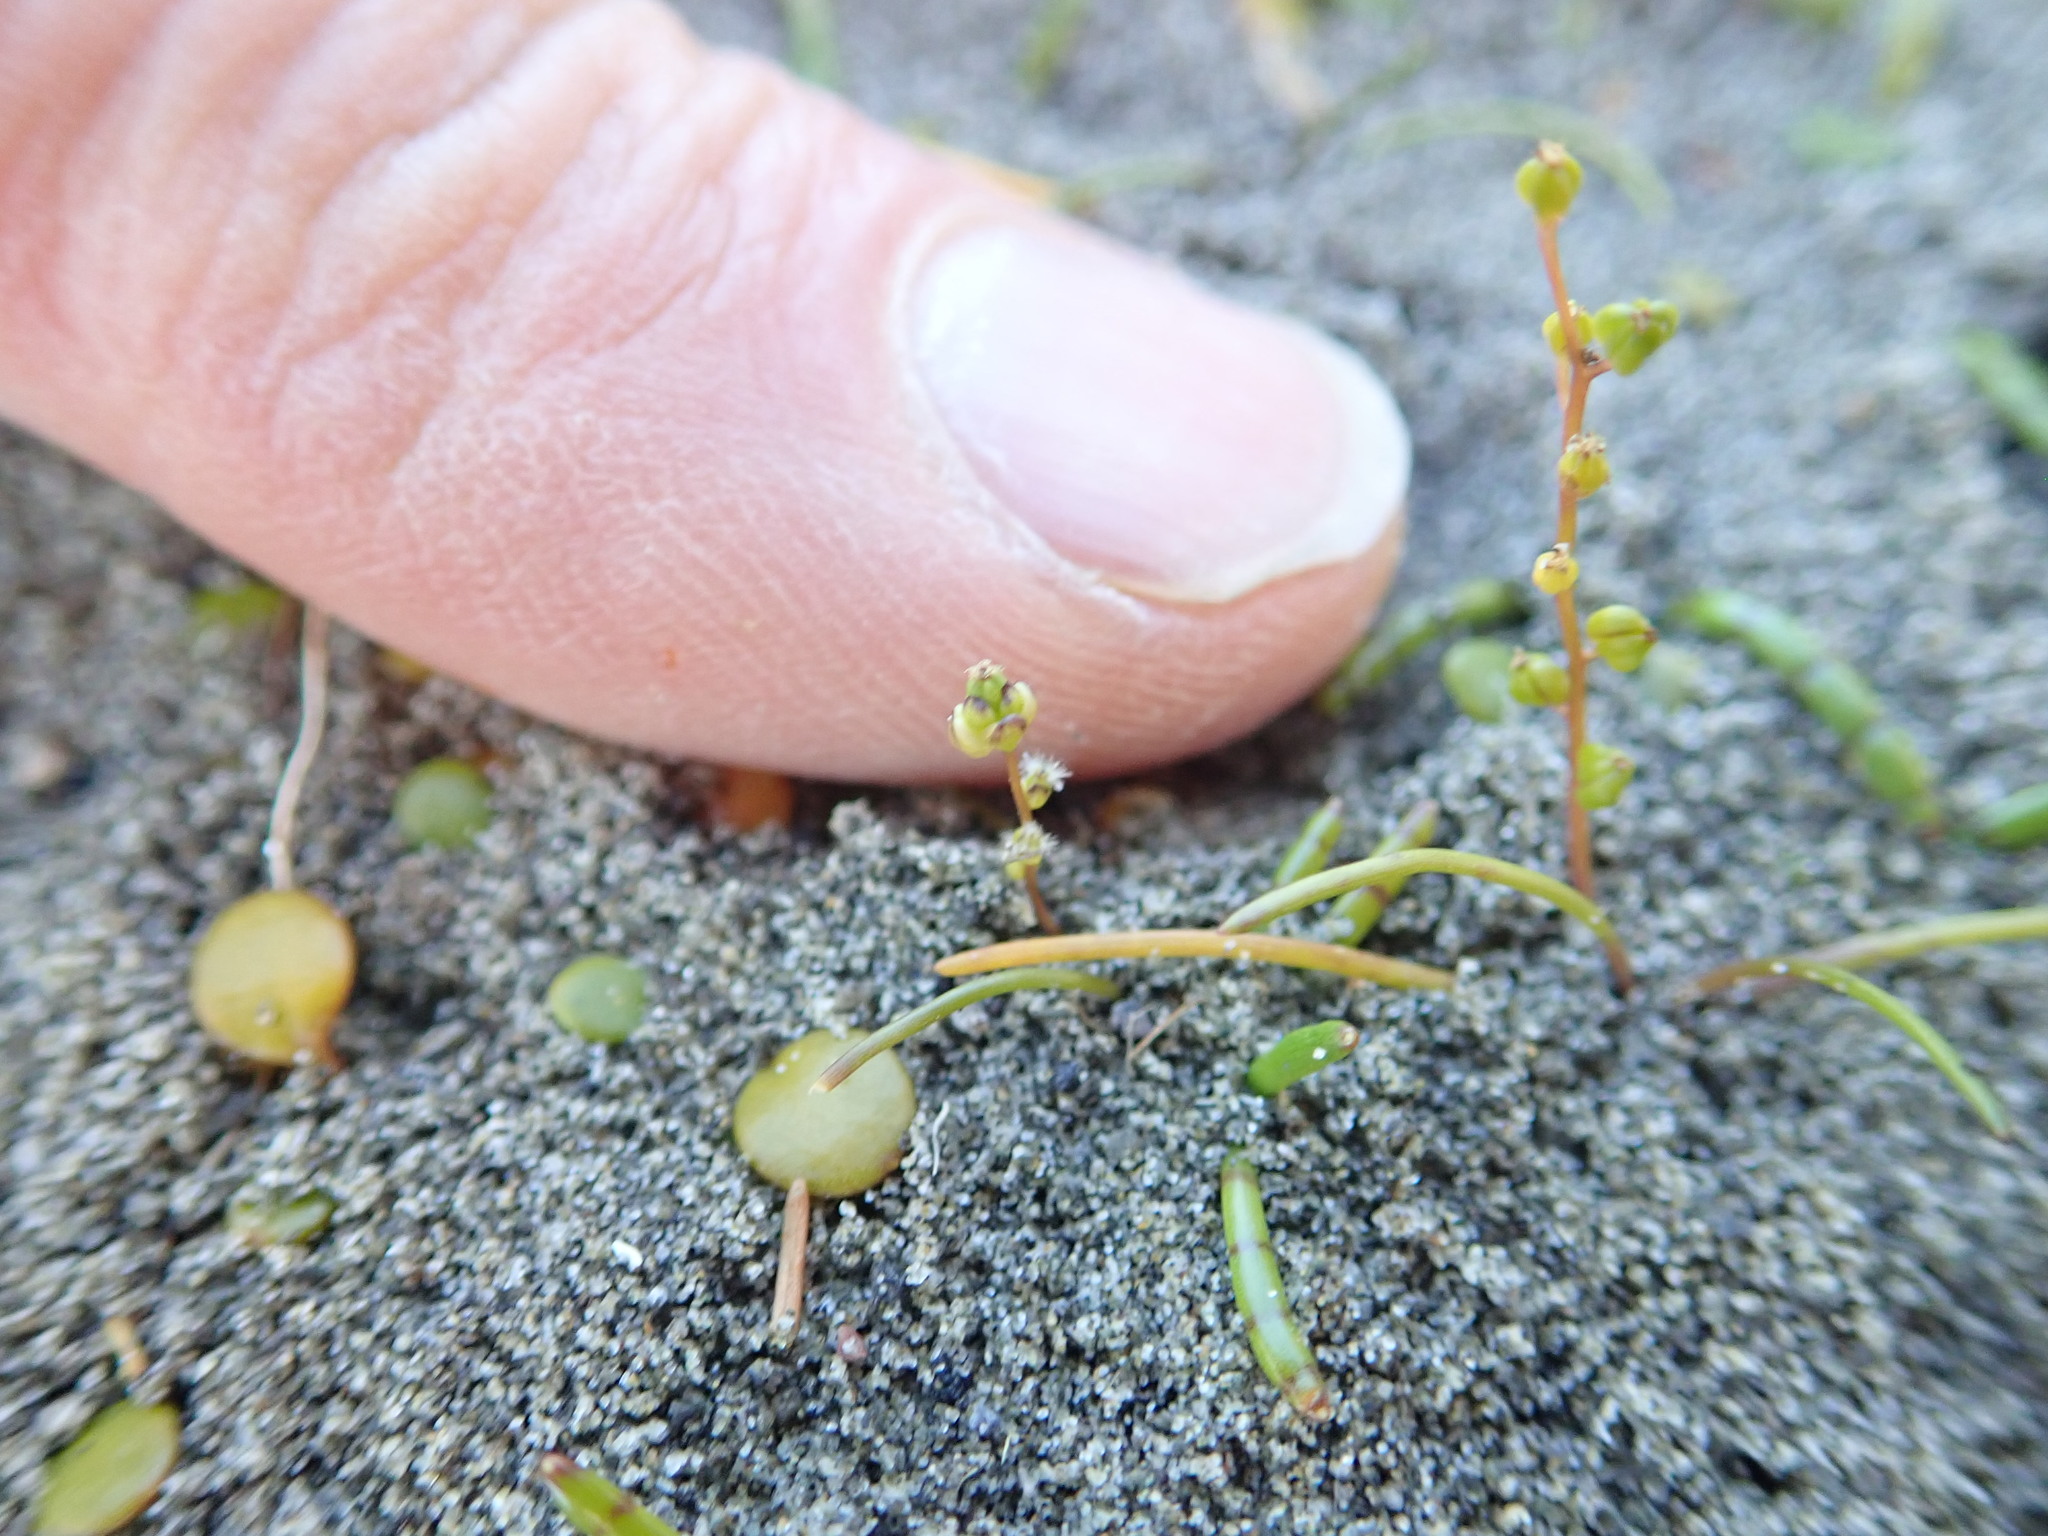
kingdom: Plantae
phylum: Tracheophyta
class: Liliopsida
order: Alismatales
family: Juncaginaceae
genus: Triglochin
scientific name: Triglochin striata
